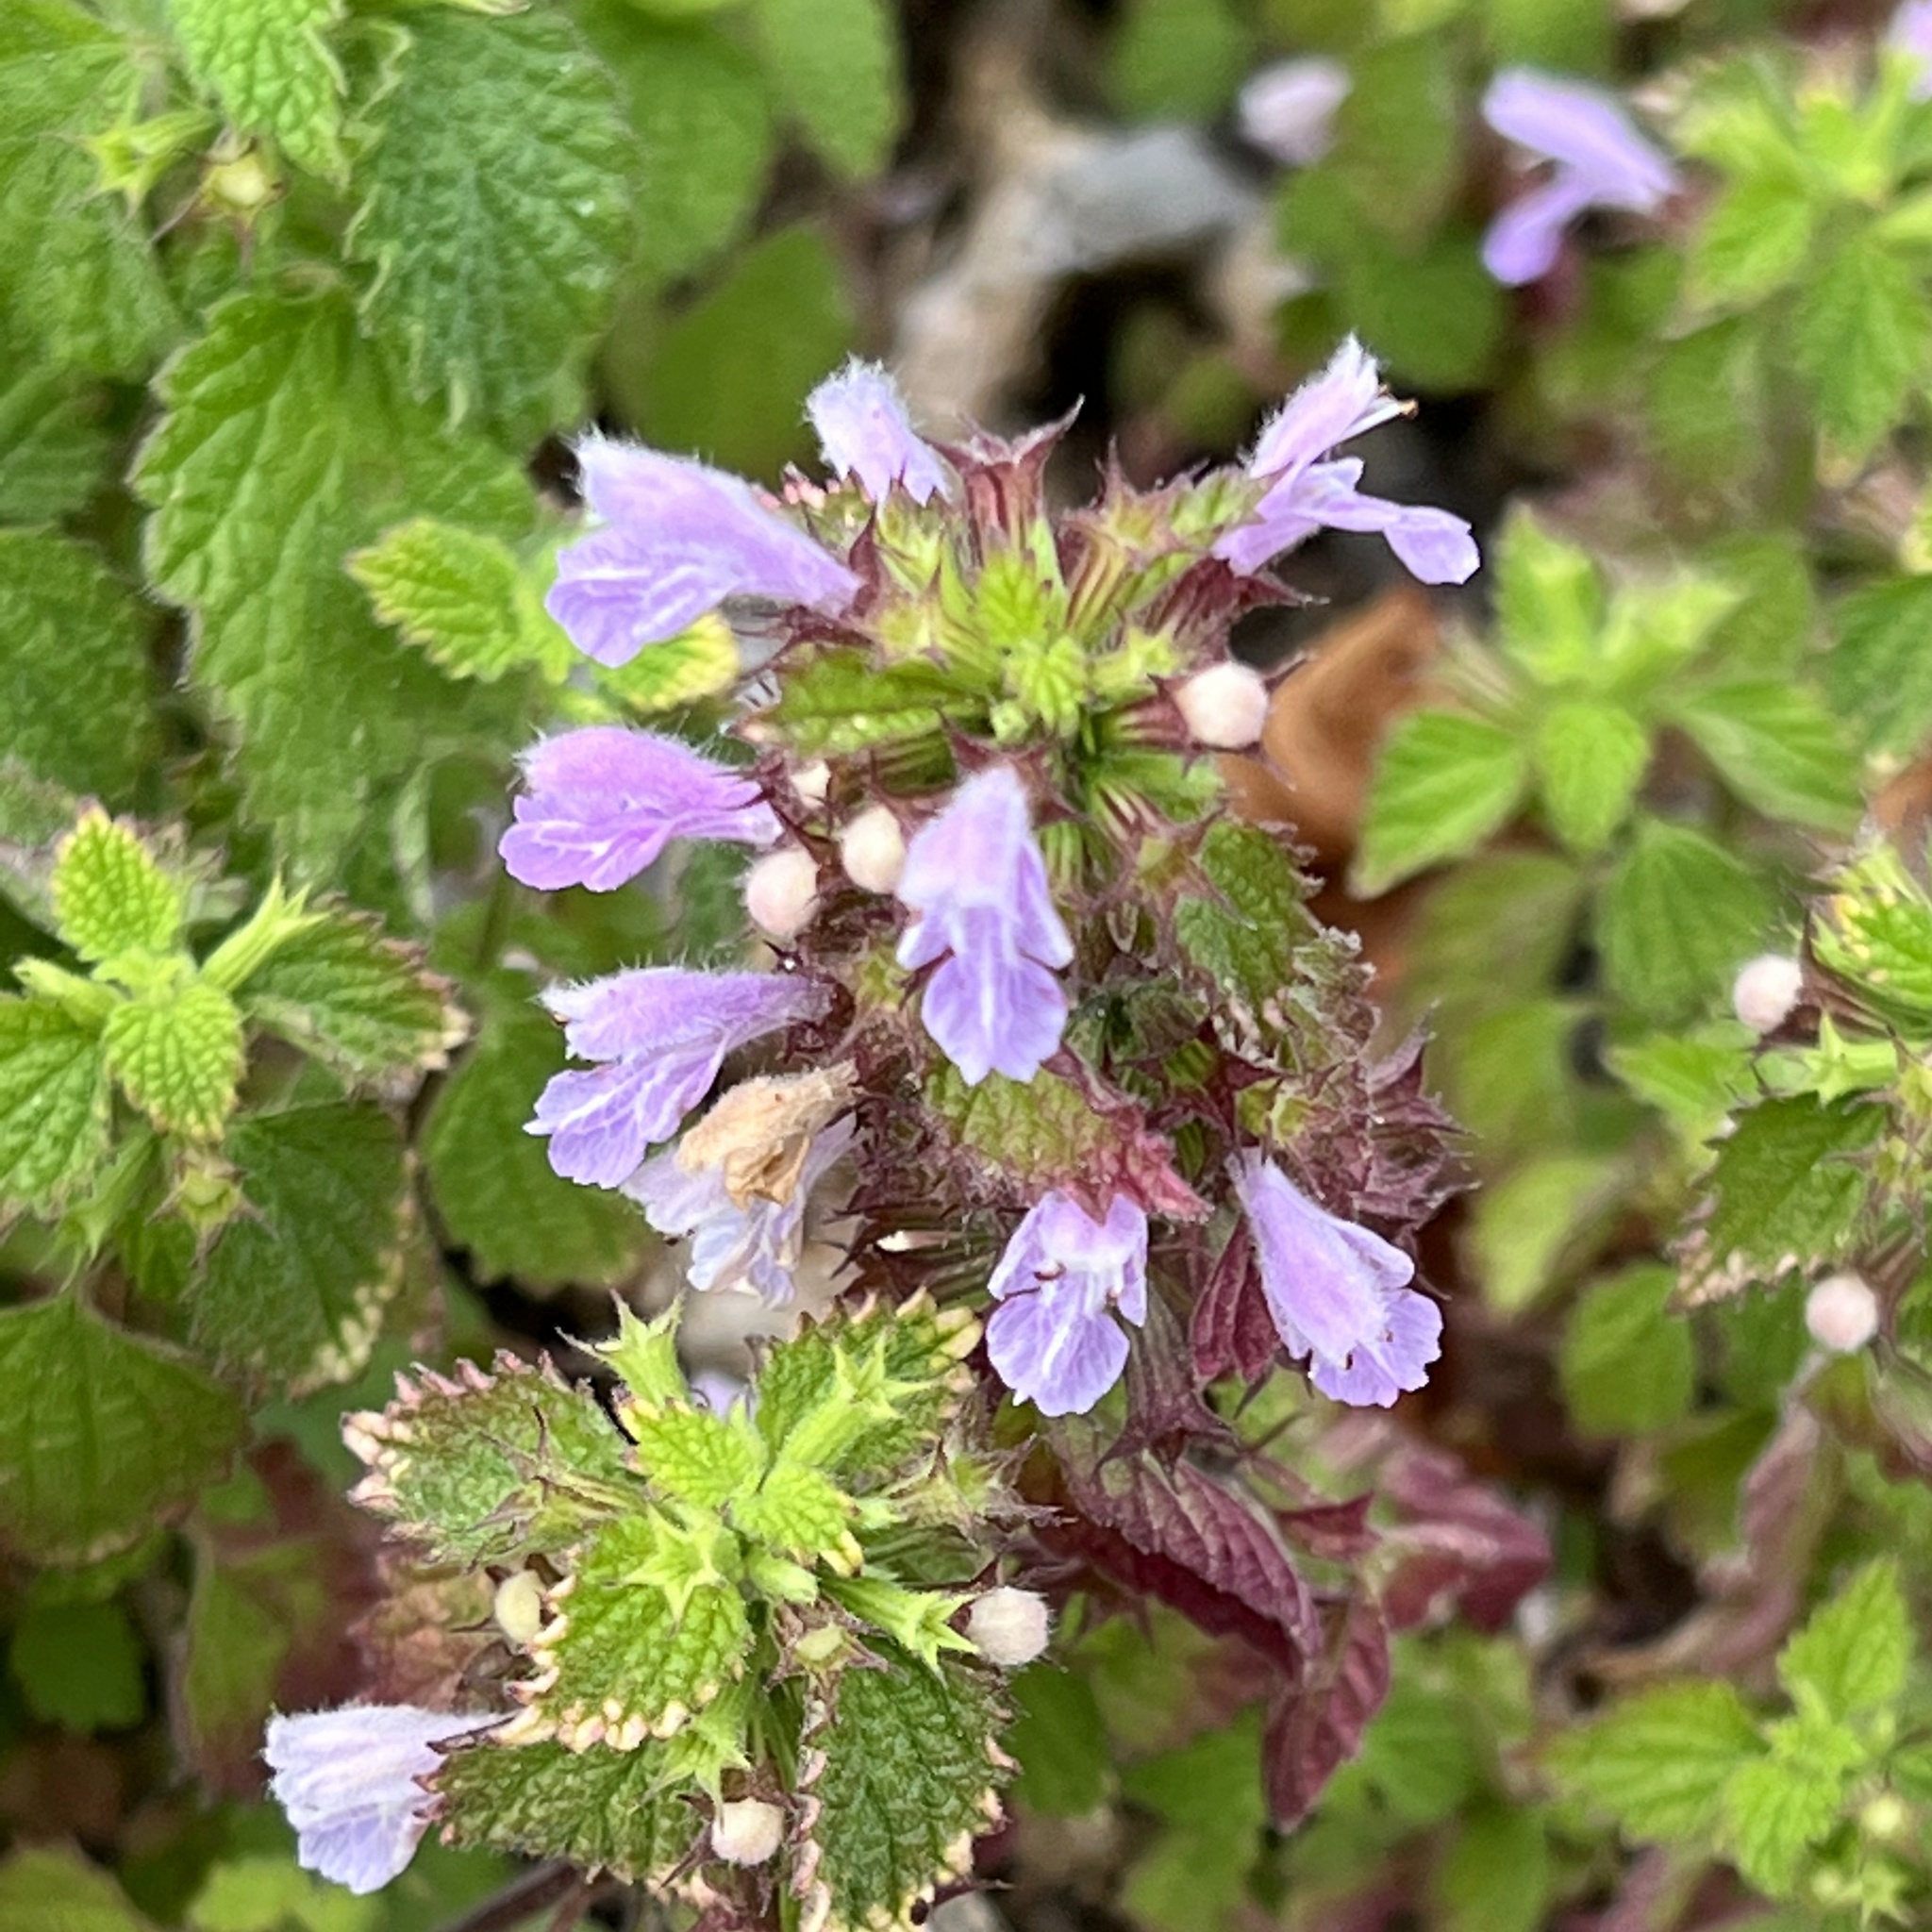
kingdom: Plantae
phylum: Tracheophyta
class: Magnoliopsida
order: Lamiales
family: Lamiaceae
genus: Ballota
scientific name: Ballota nigra
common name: Black horehound
